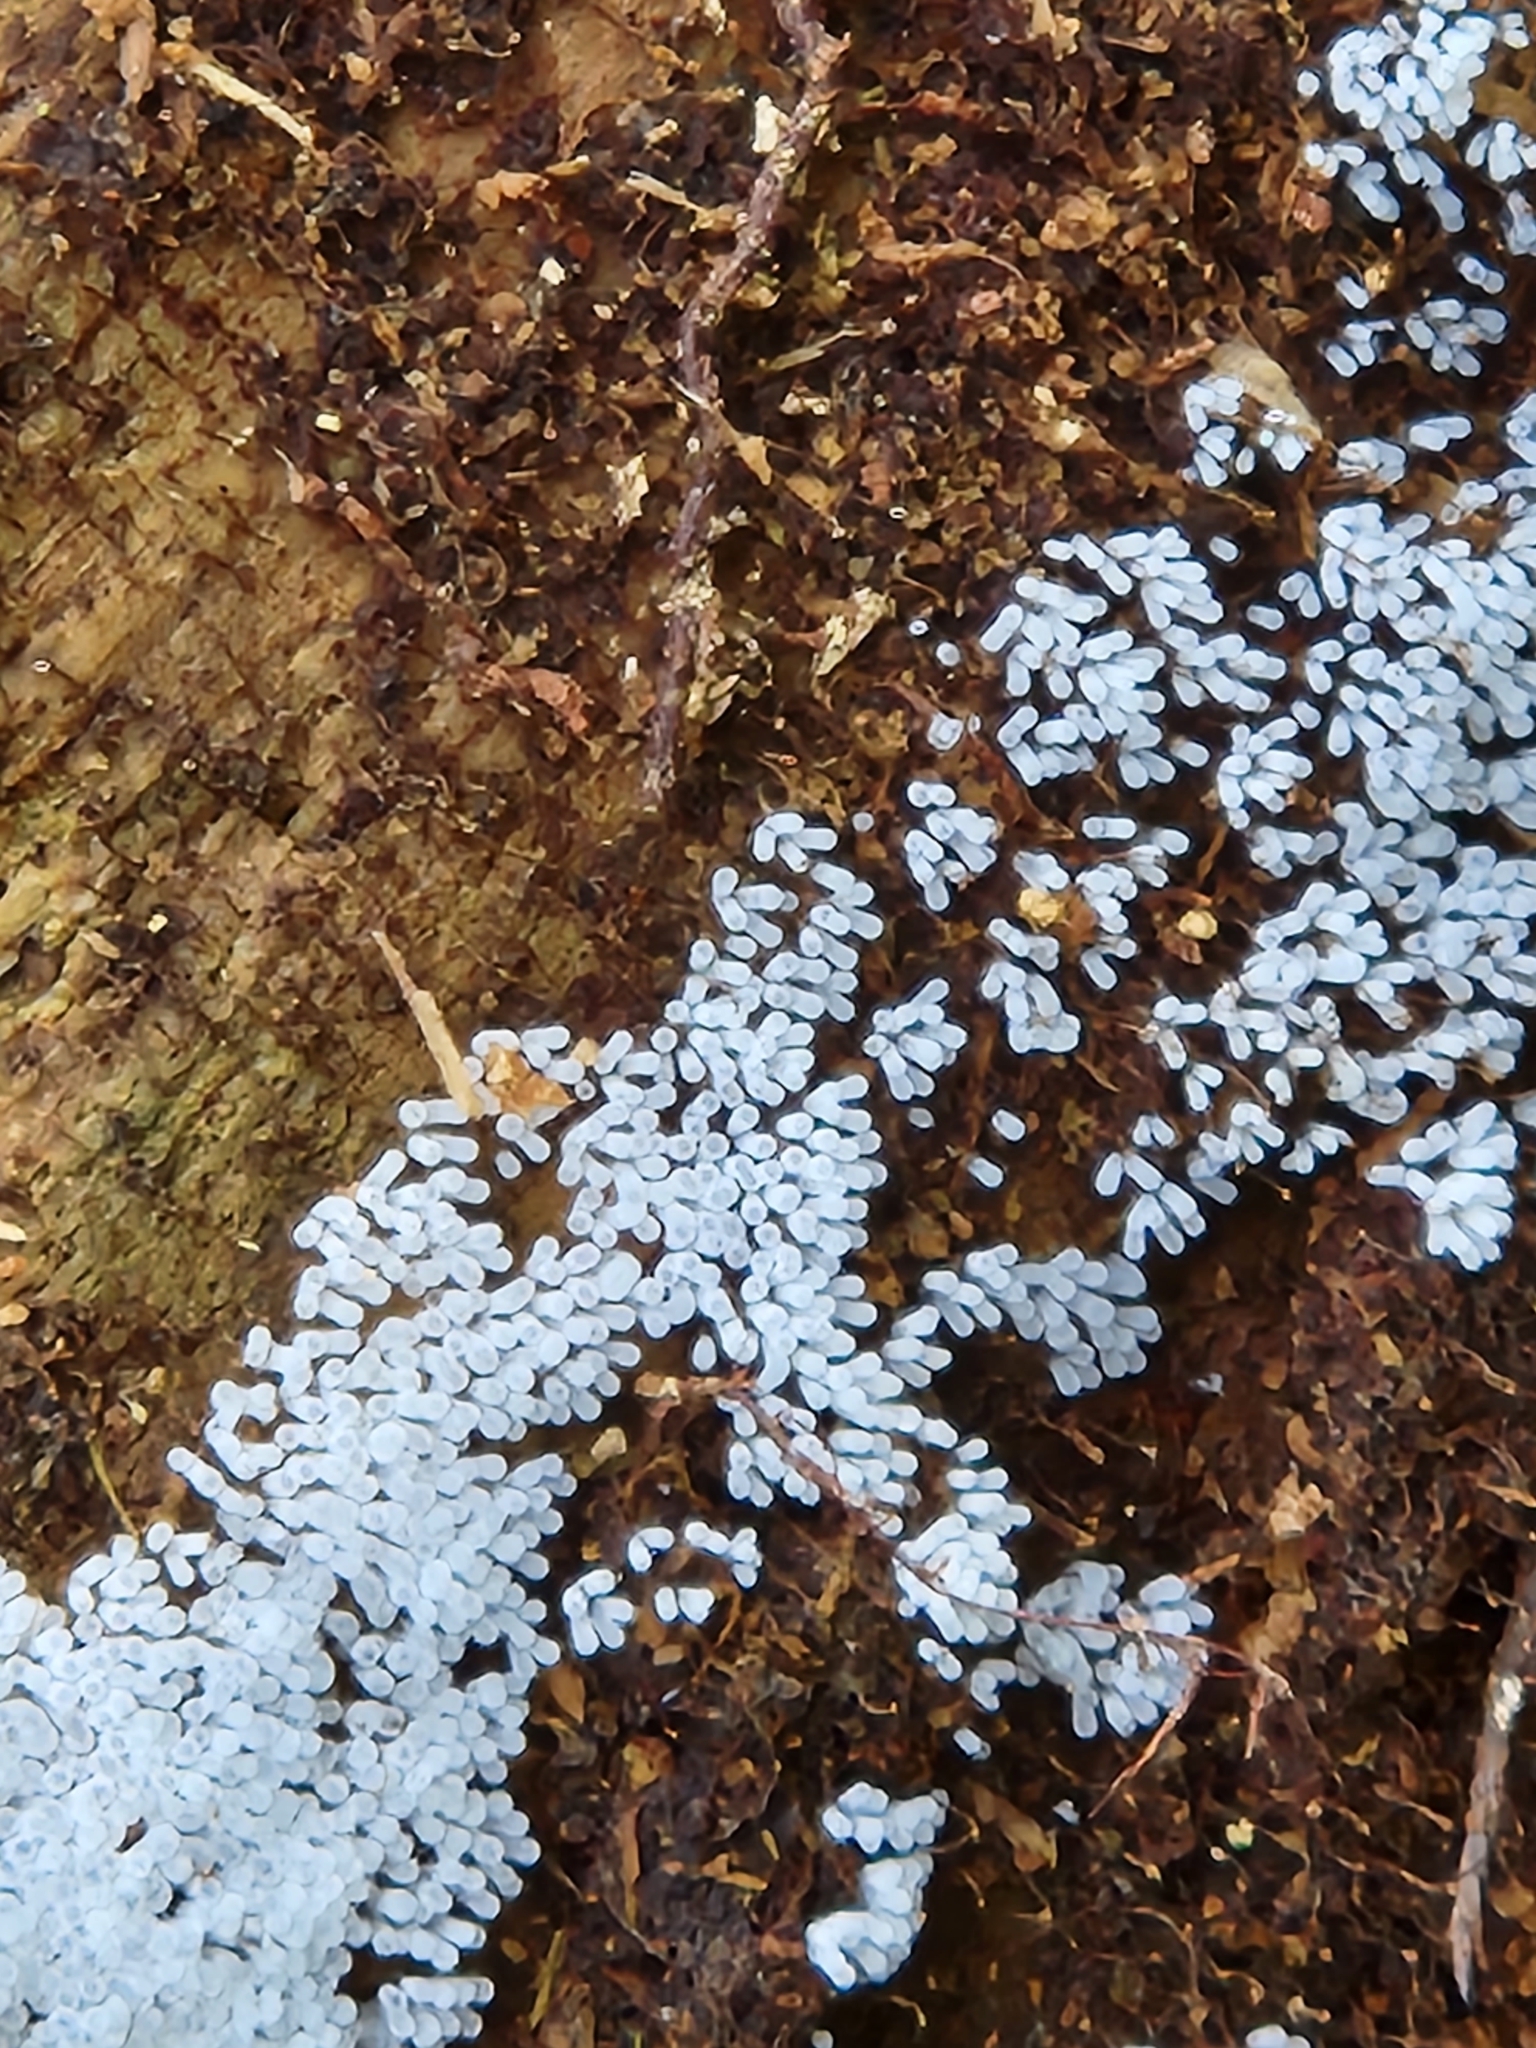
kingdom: Protozoa
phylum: Mycetozoa
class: Protosteliomycetes
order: Ceratiomyxales
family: Ceratiomyxaceae
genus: Ceratiomyxa
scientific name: Ceratiomyxa fruticulosa
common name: Honeycomb coral slime mold
